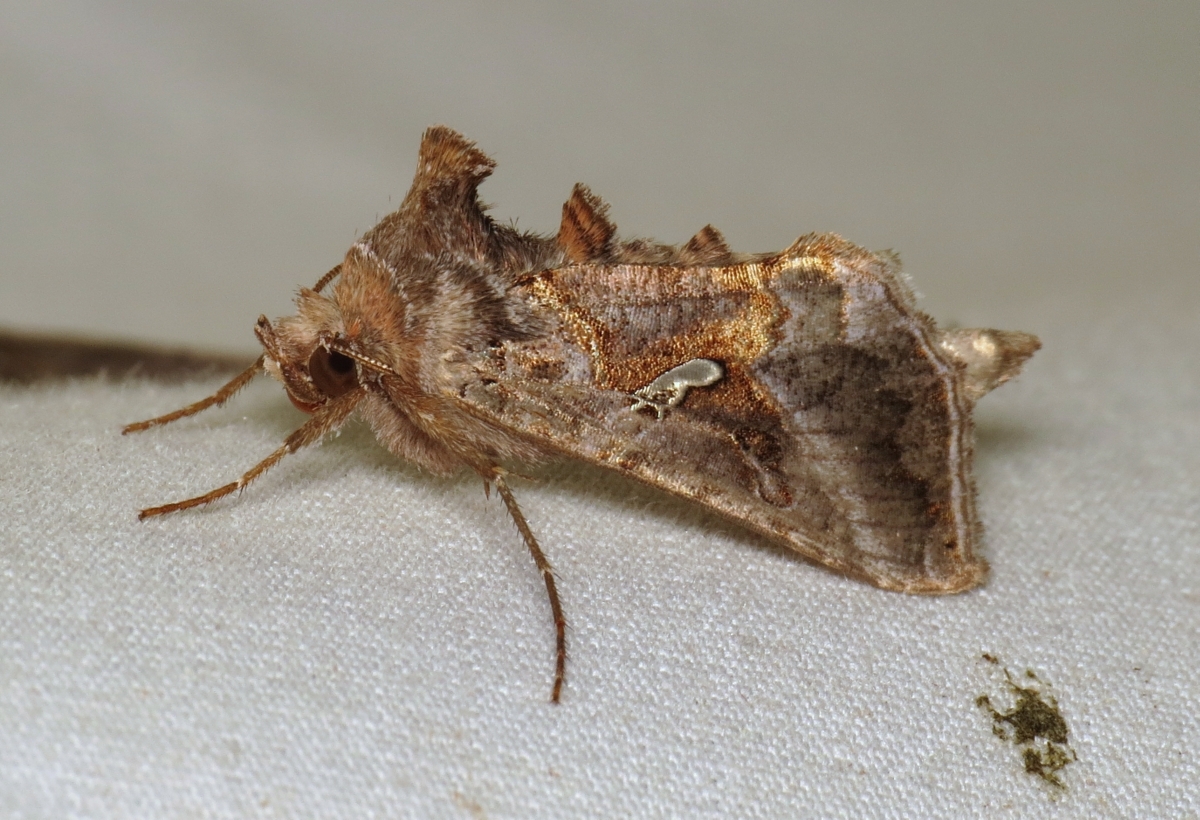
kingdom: Animalia
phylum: Arthropoda
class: Insecta
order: Lepidoptera
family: Noctuidae
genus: Autographa
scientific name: Autographa precationis
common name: Common looper moth
